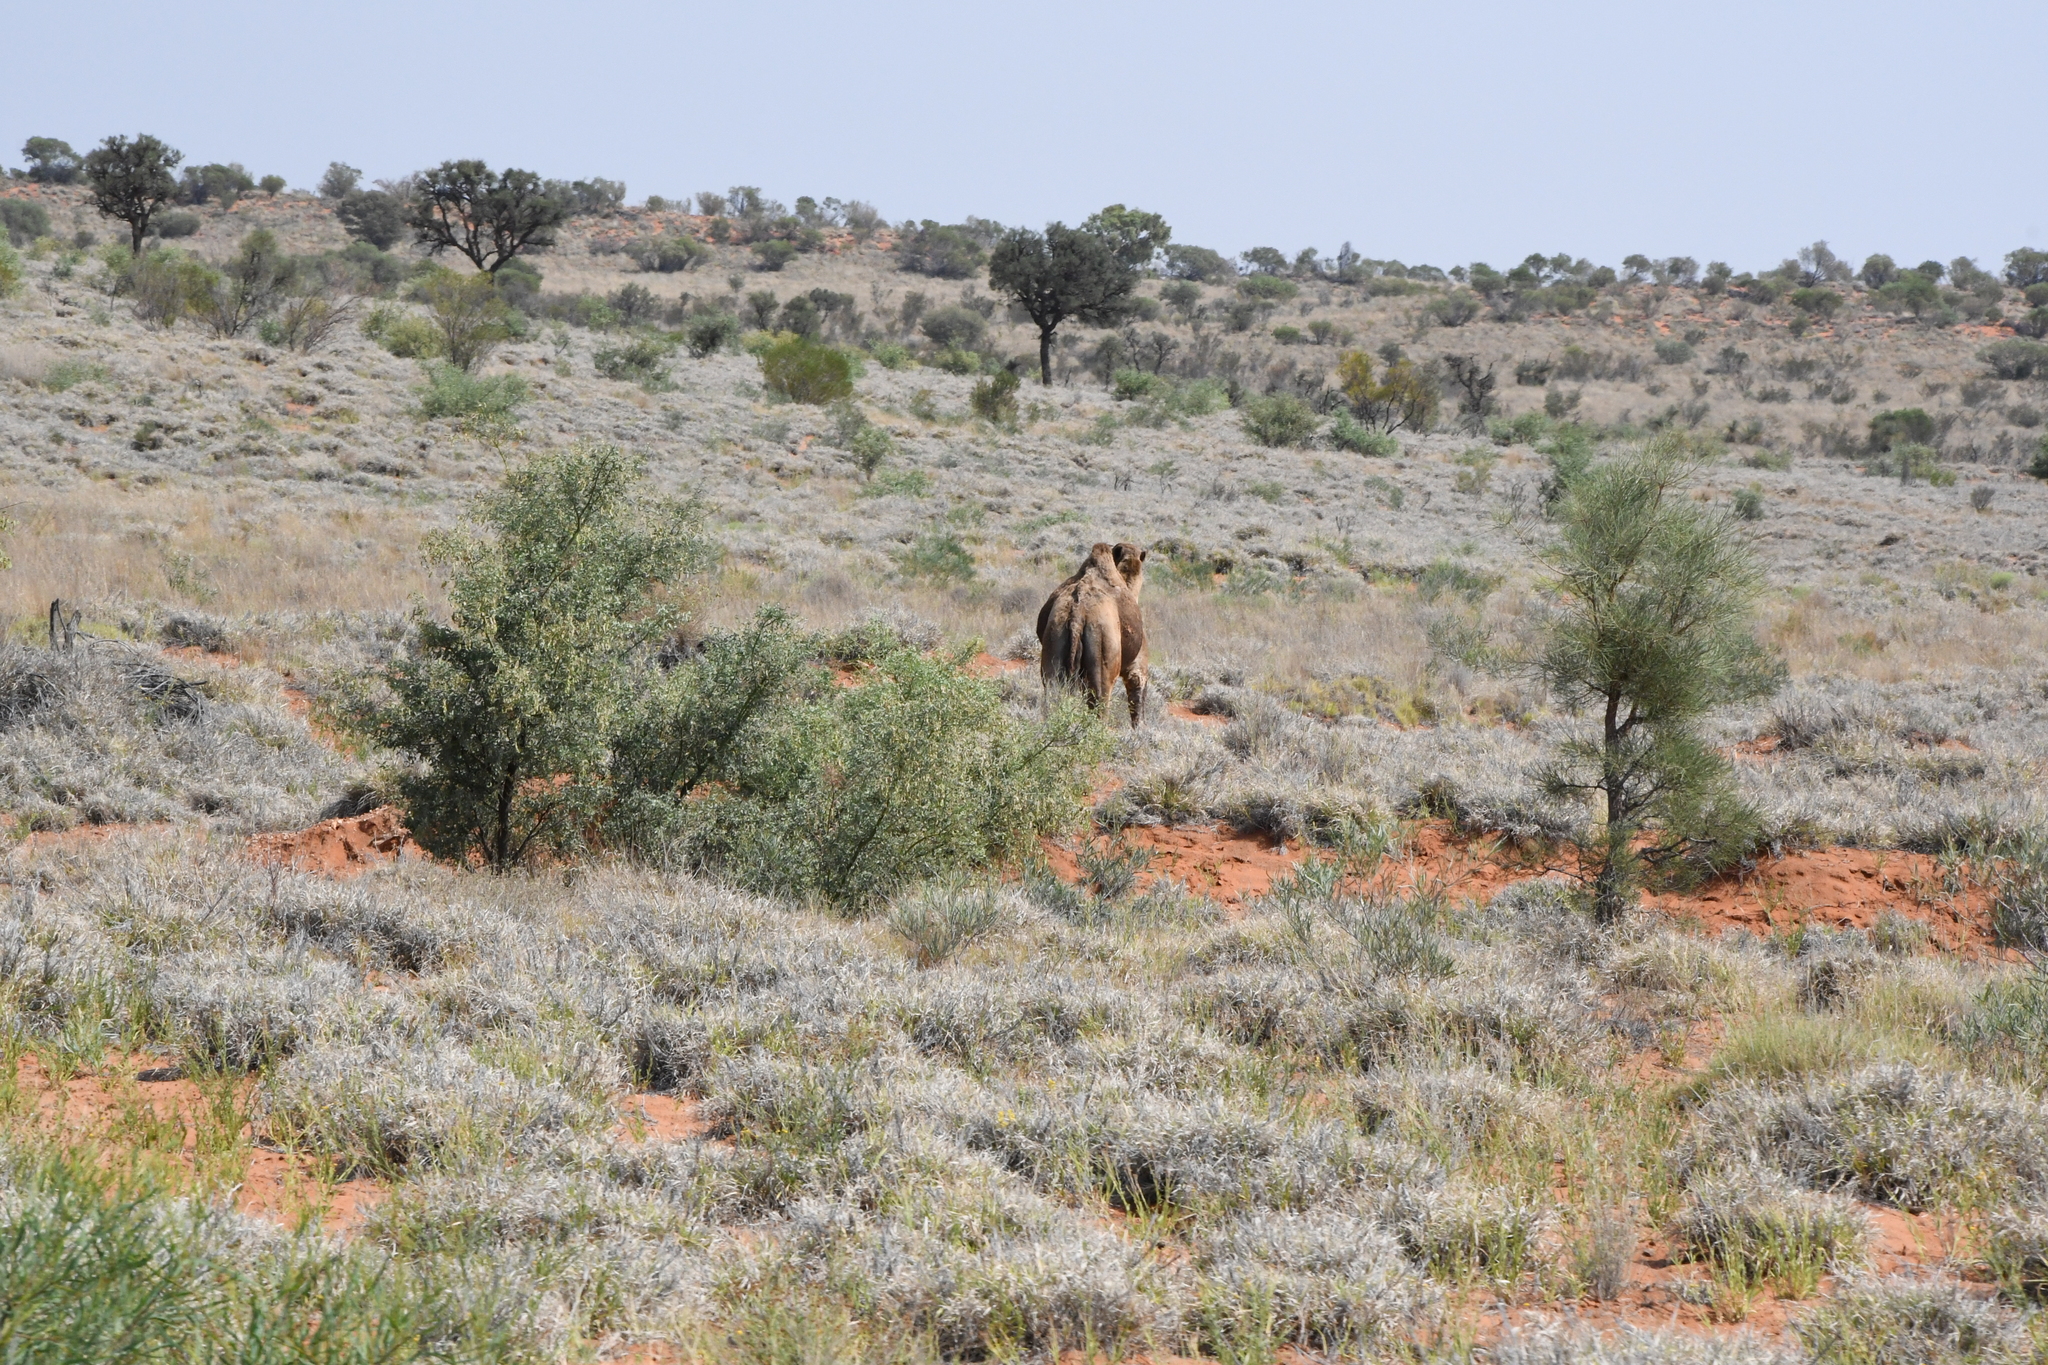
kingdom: Animalia
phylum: Chordata
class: Mammalia
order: Artiodactyla
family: Camelidae
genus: Camelus
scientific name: Camelus dromedarius
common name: One-humped camel
